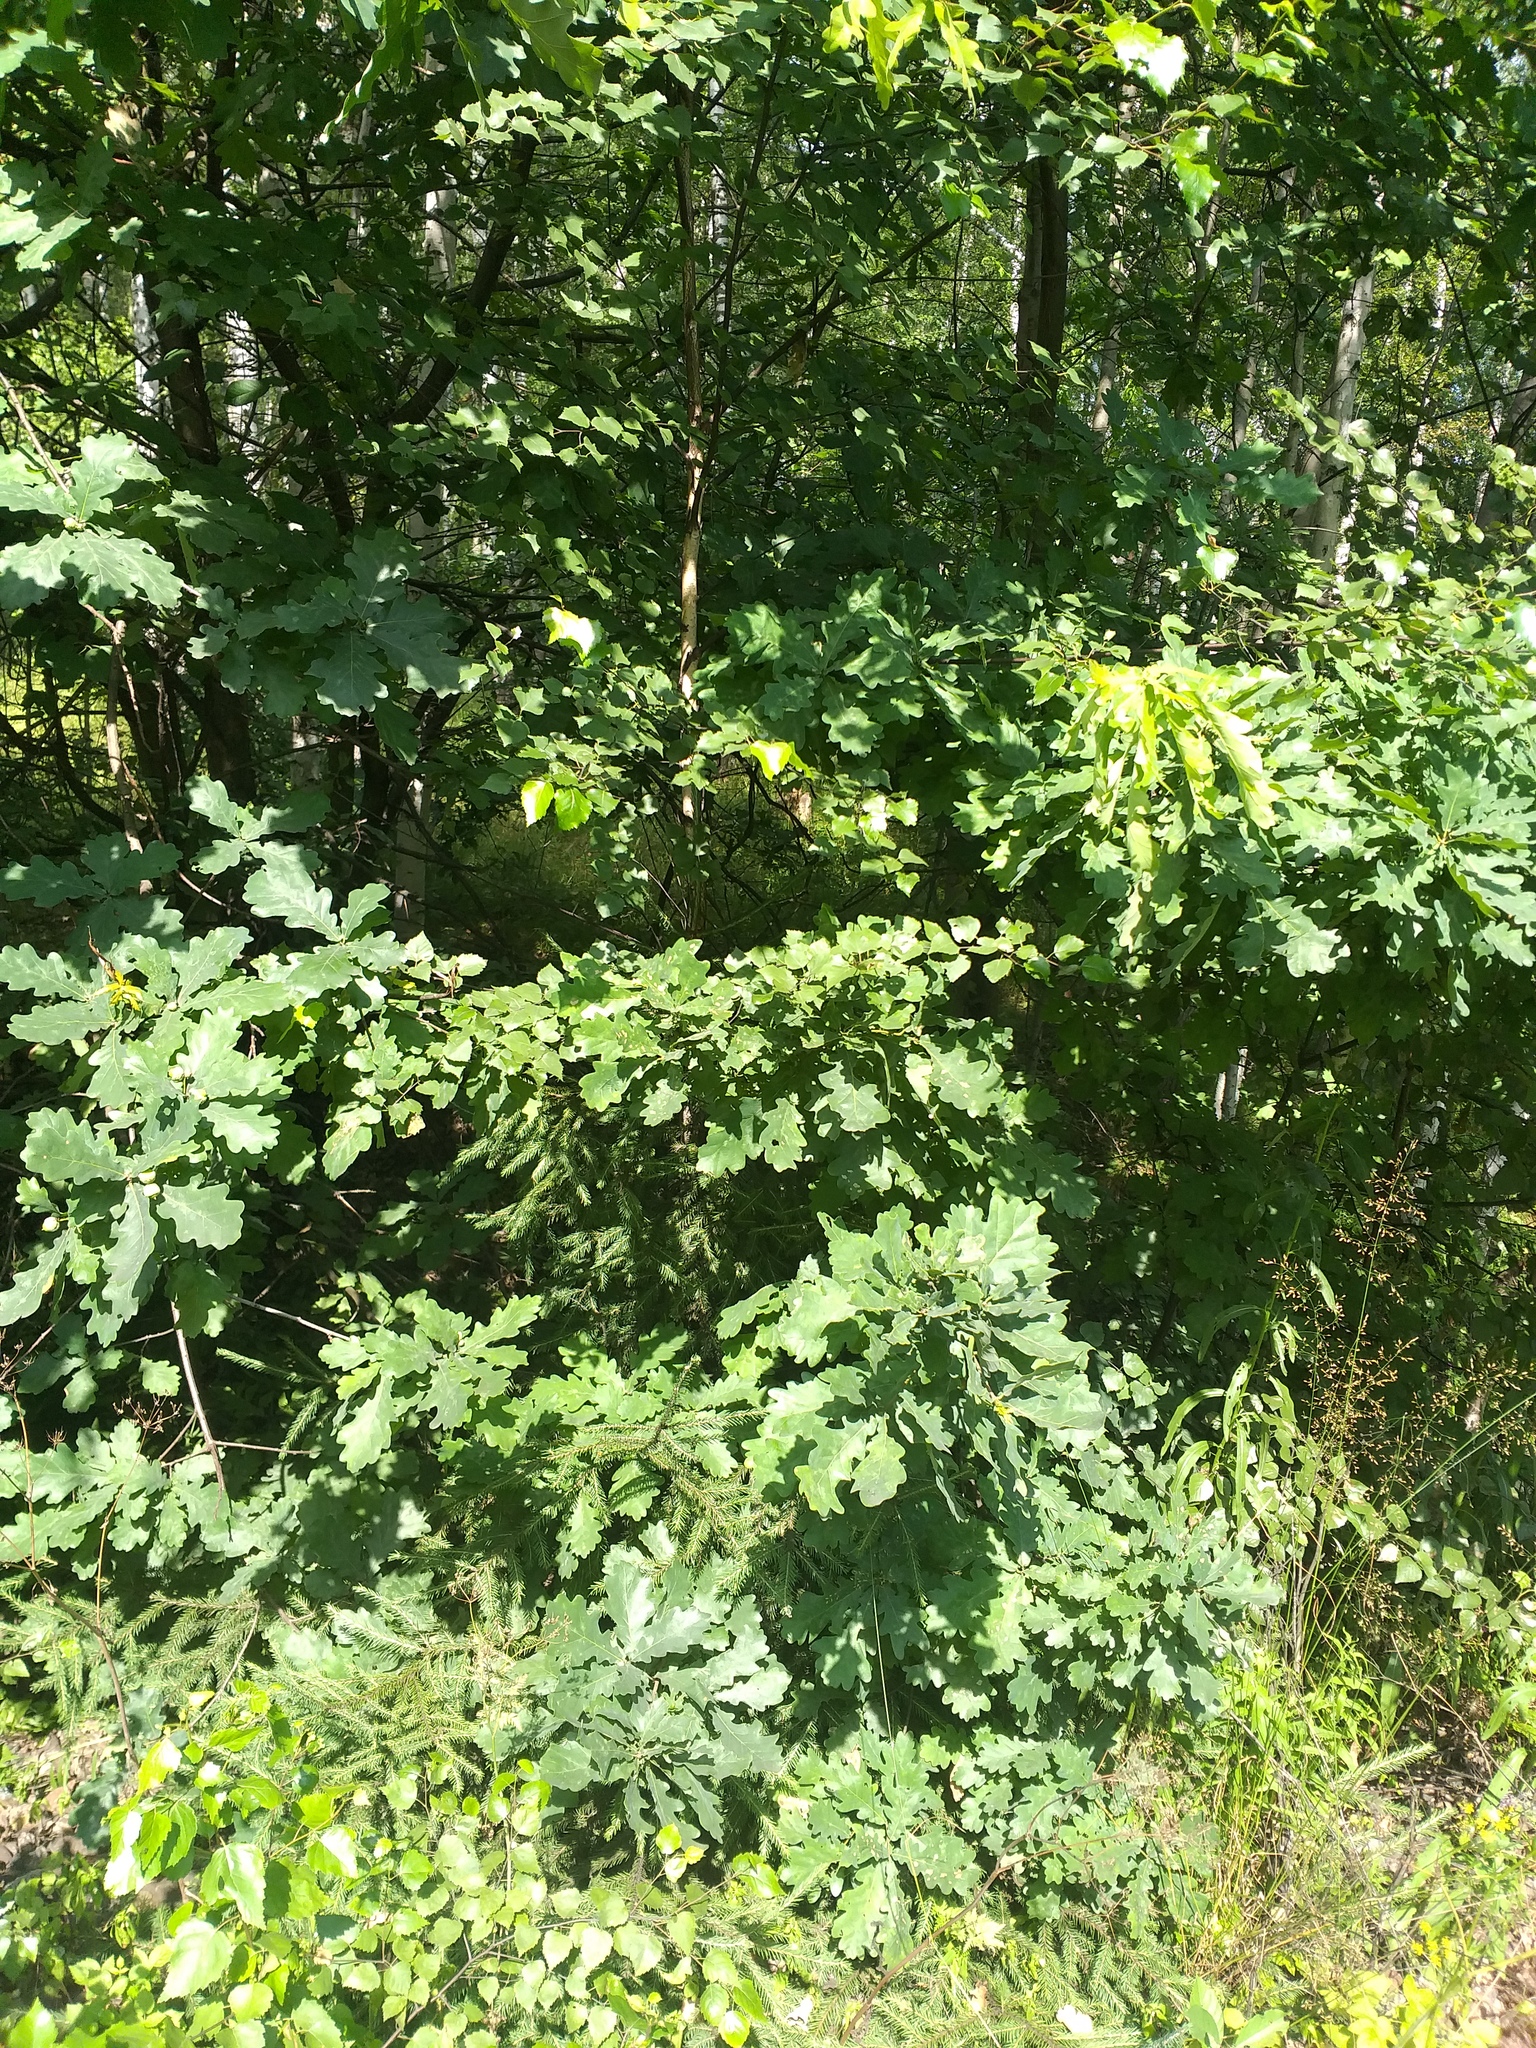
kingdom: Plantae
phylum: Tracheophyta
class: Magnoliopsida
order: Fagales
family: Fagaceae
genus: Quercus
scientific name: Quercus robur
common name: Pedunculate oak
